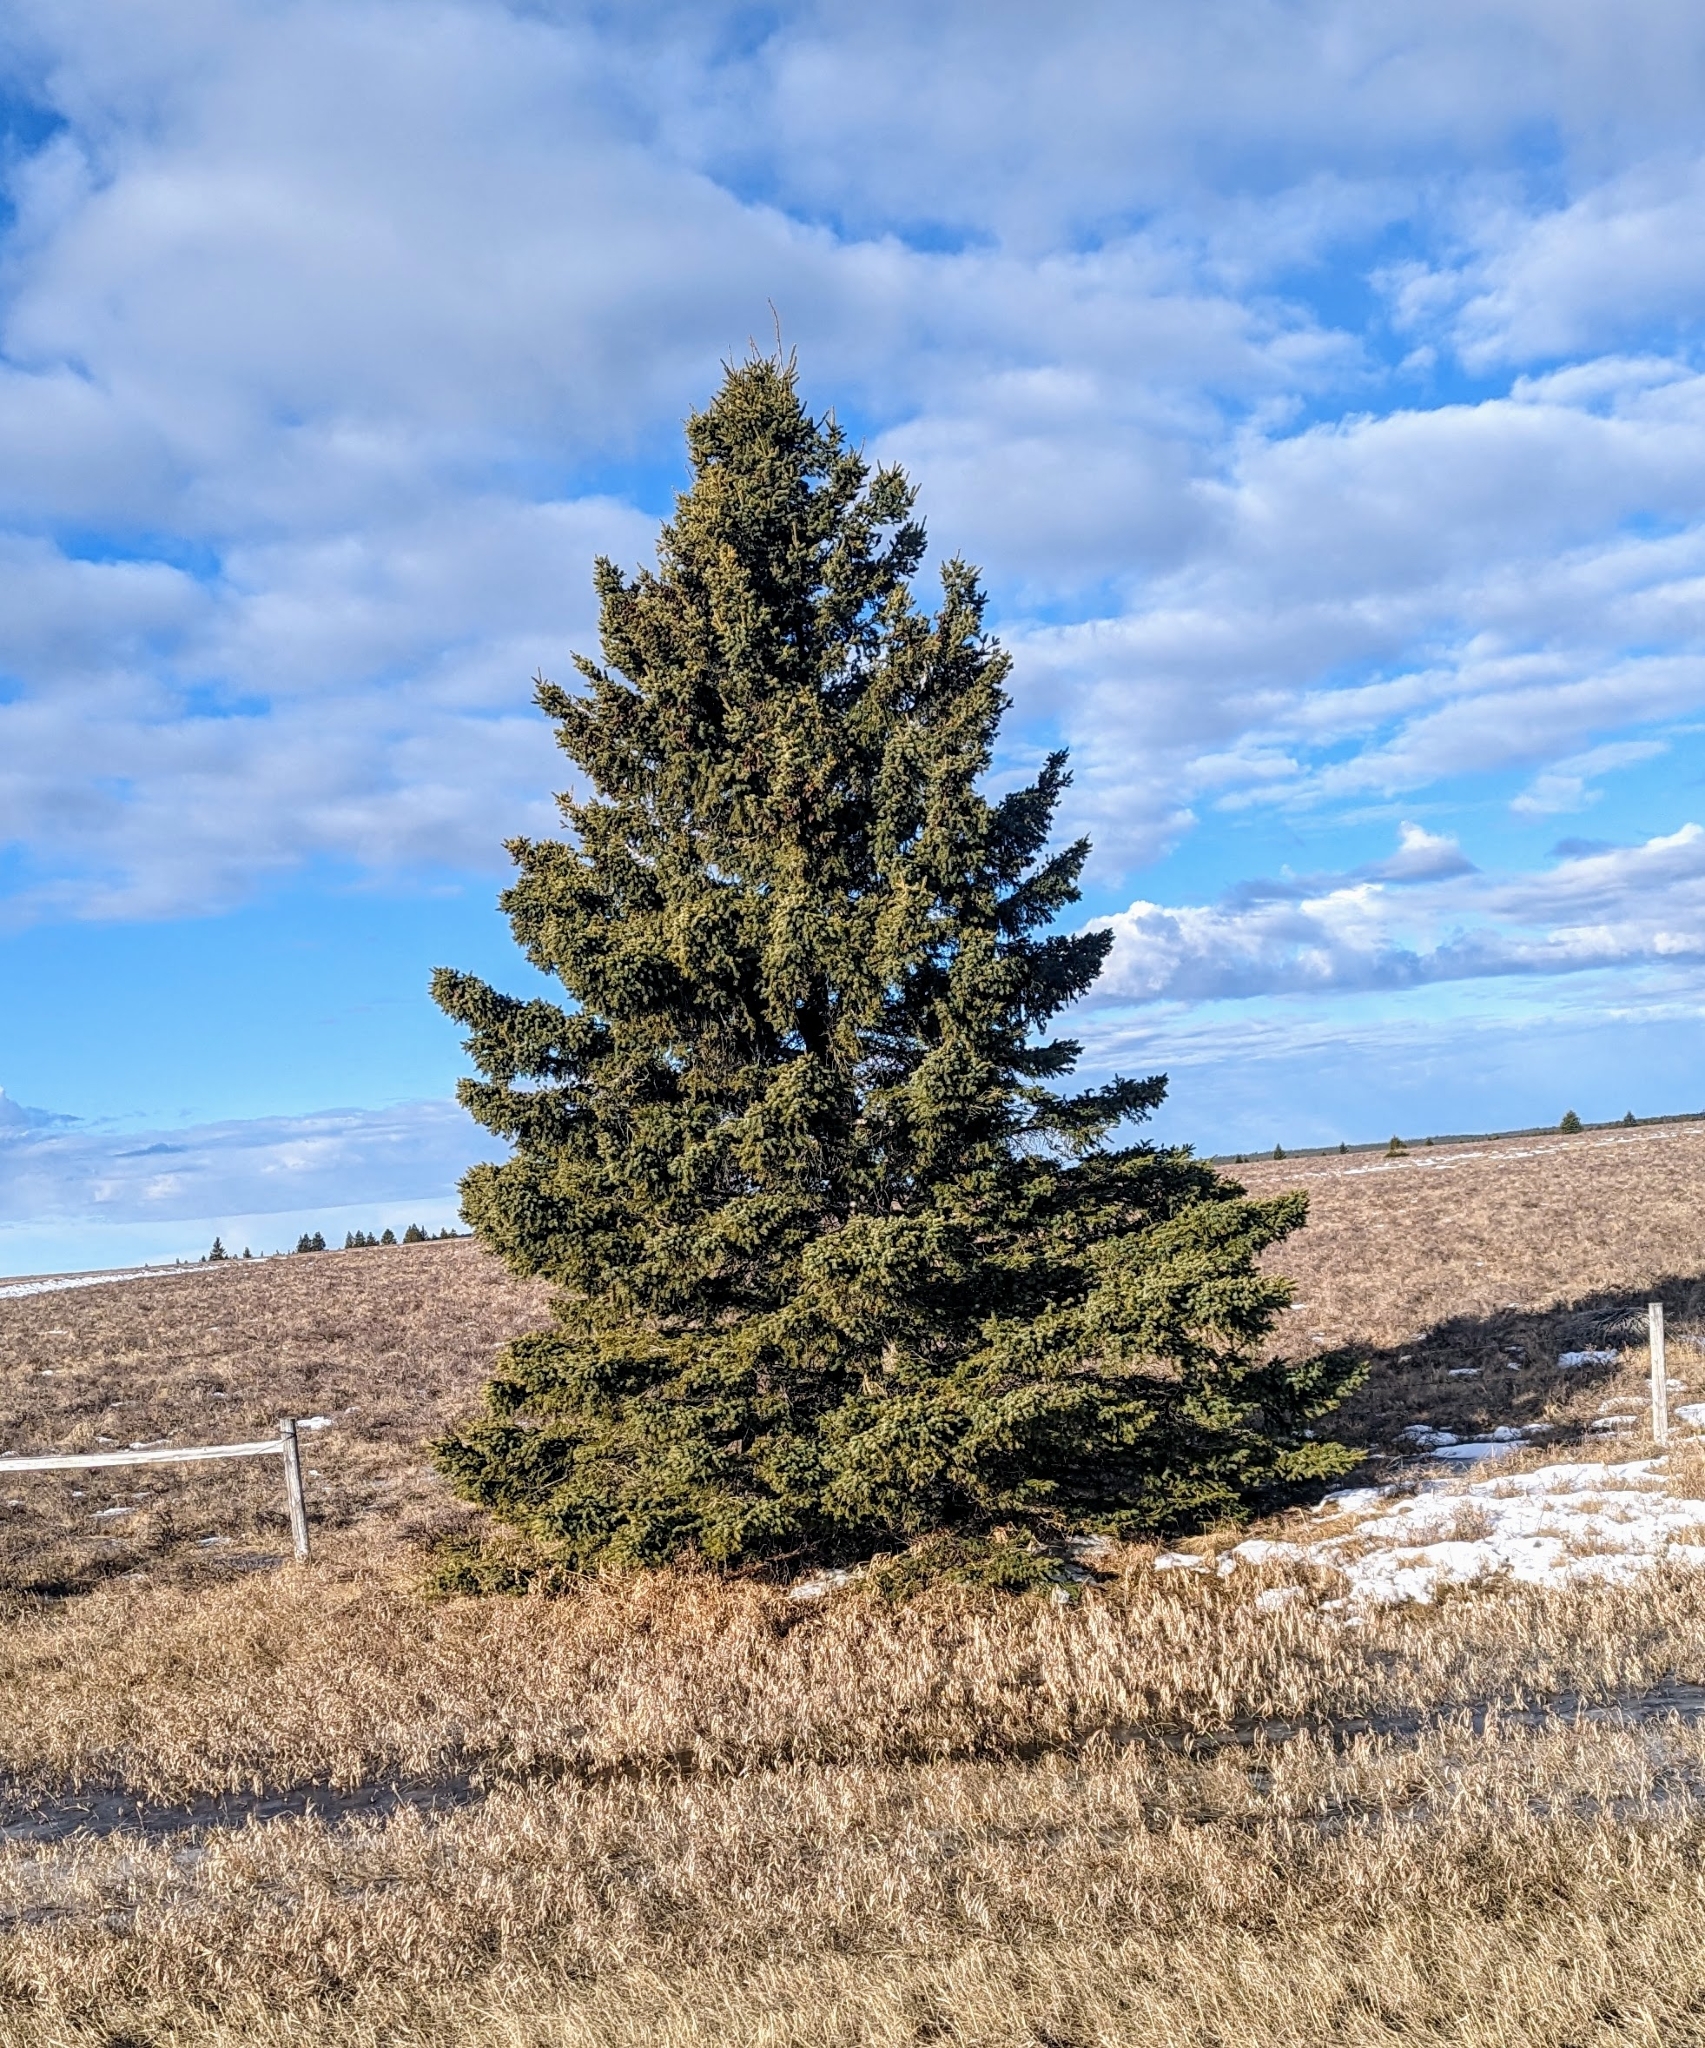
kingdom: Plantae
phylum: Tracheophyta
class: Pinopsida
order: Pinales
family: Pinaceae
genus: Picea
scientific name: Picea glauca
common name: White spruce
